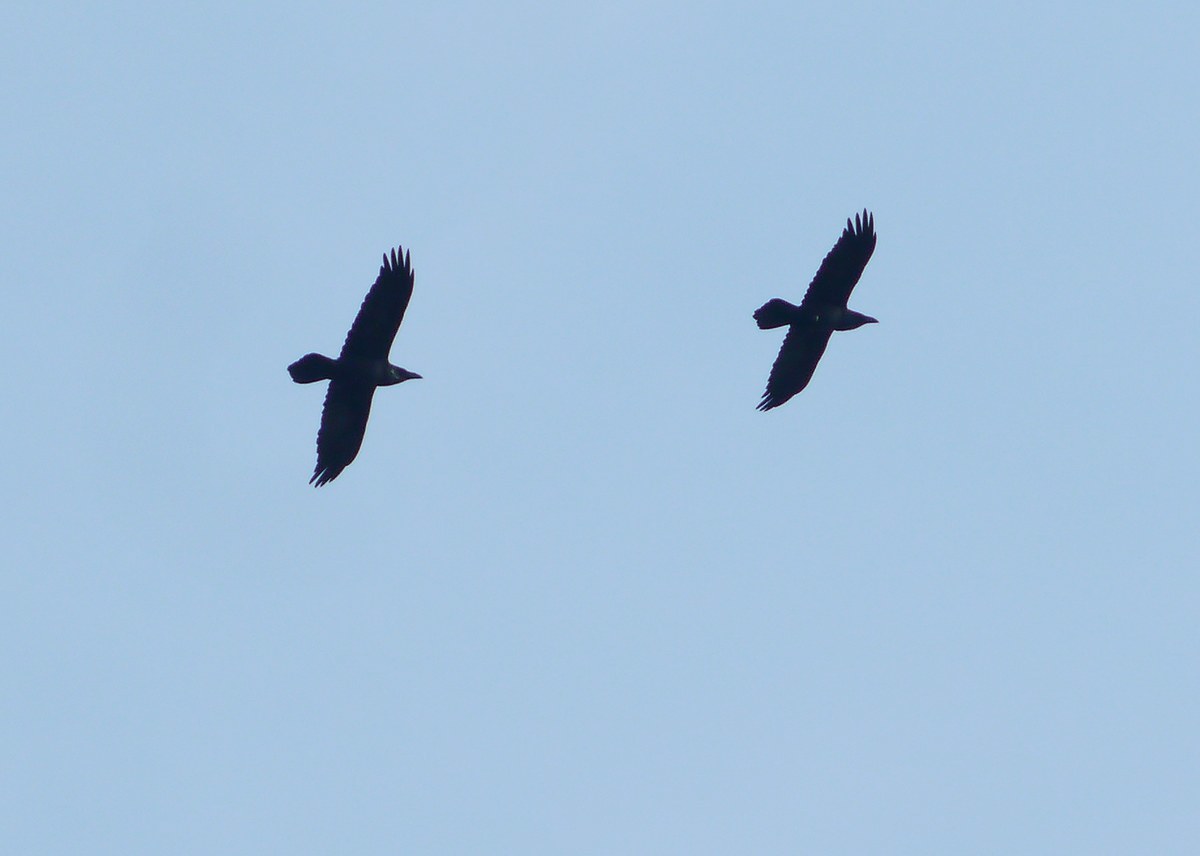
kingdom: Animalia
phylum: Chordata
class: Aves
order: Passeriformes
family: Corvidae
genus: Corvus
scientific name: Corvus corax
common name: Common raven
